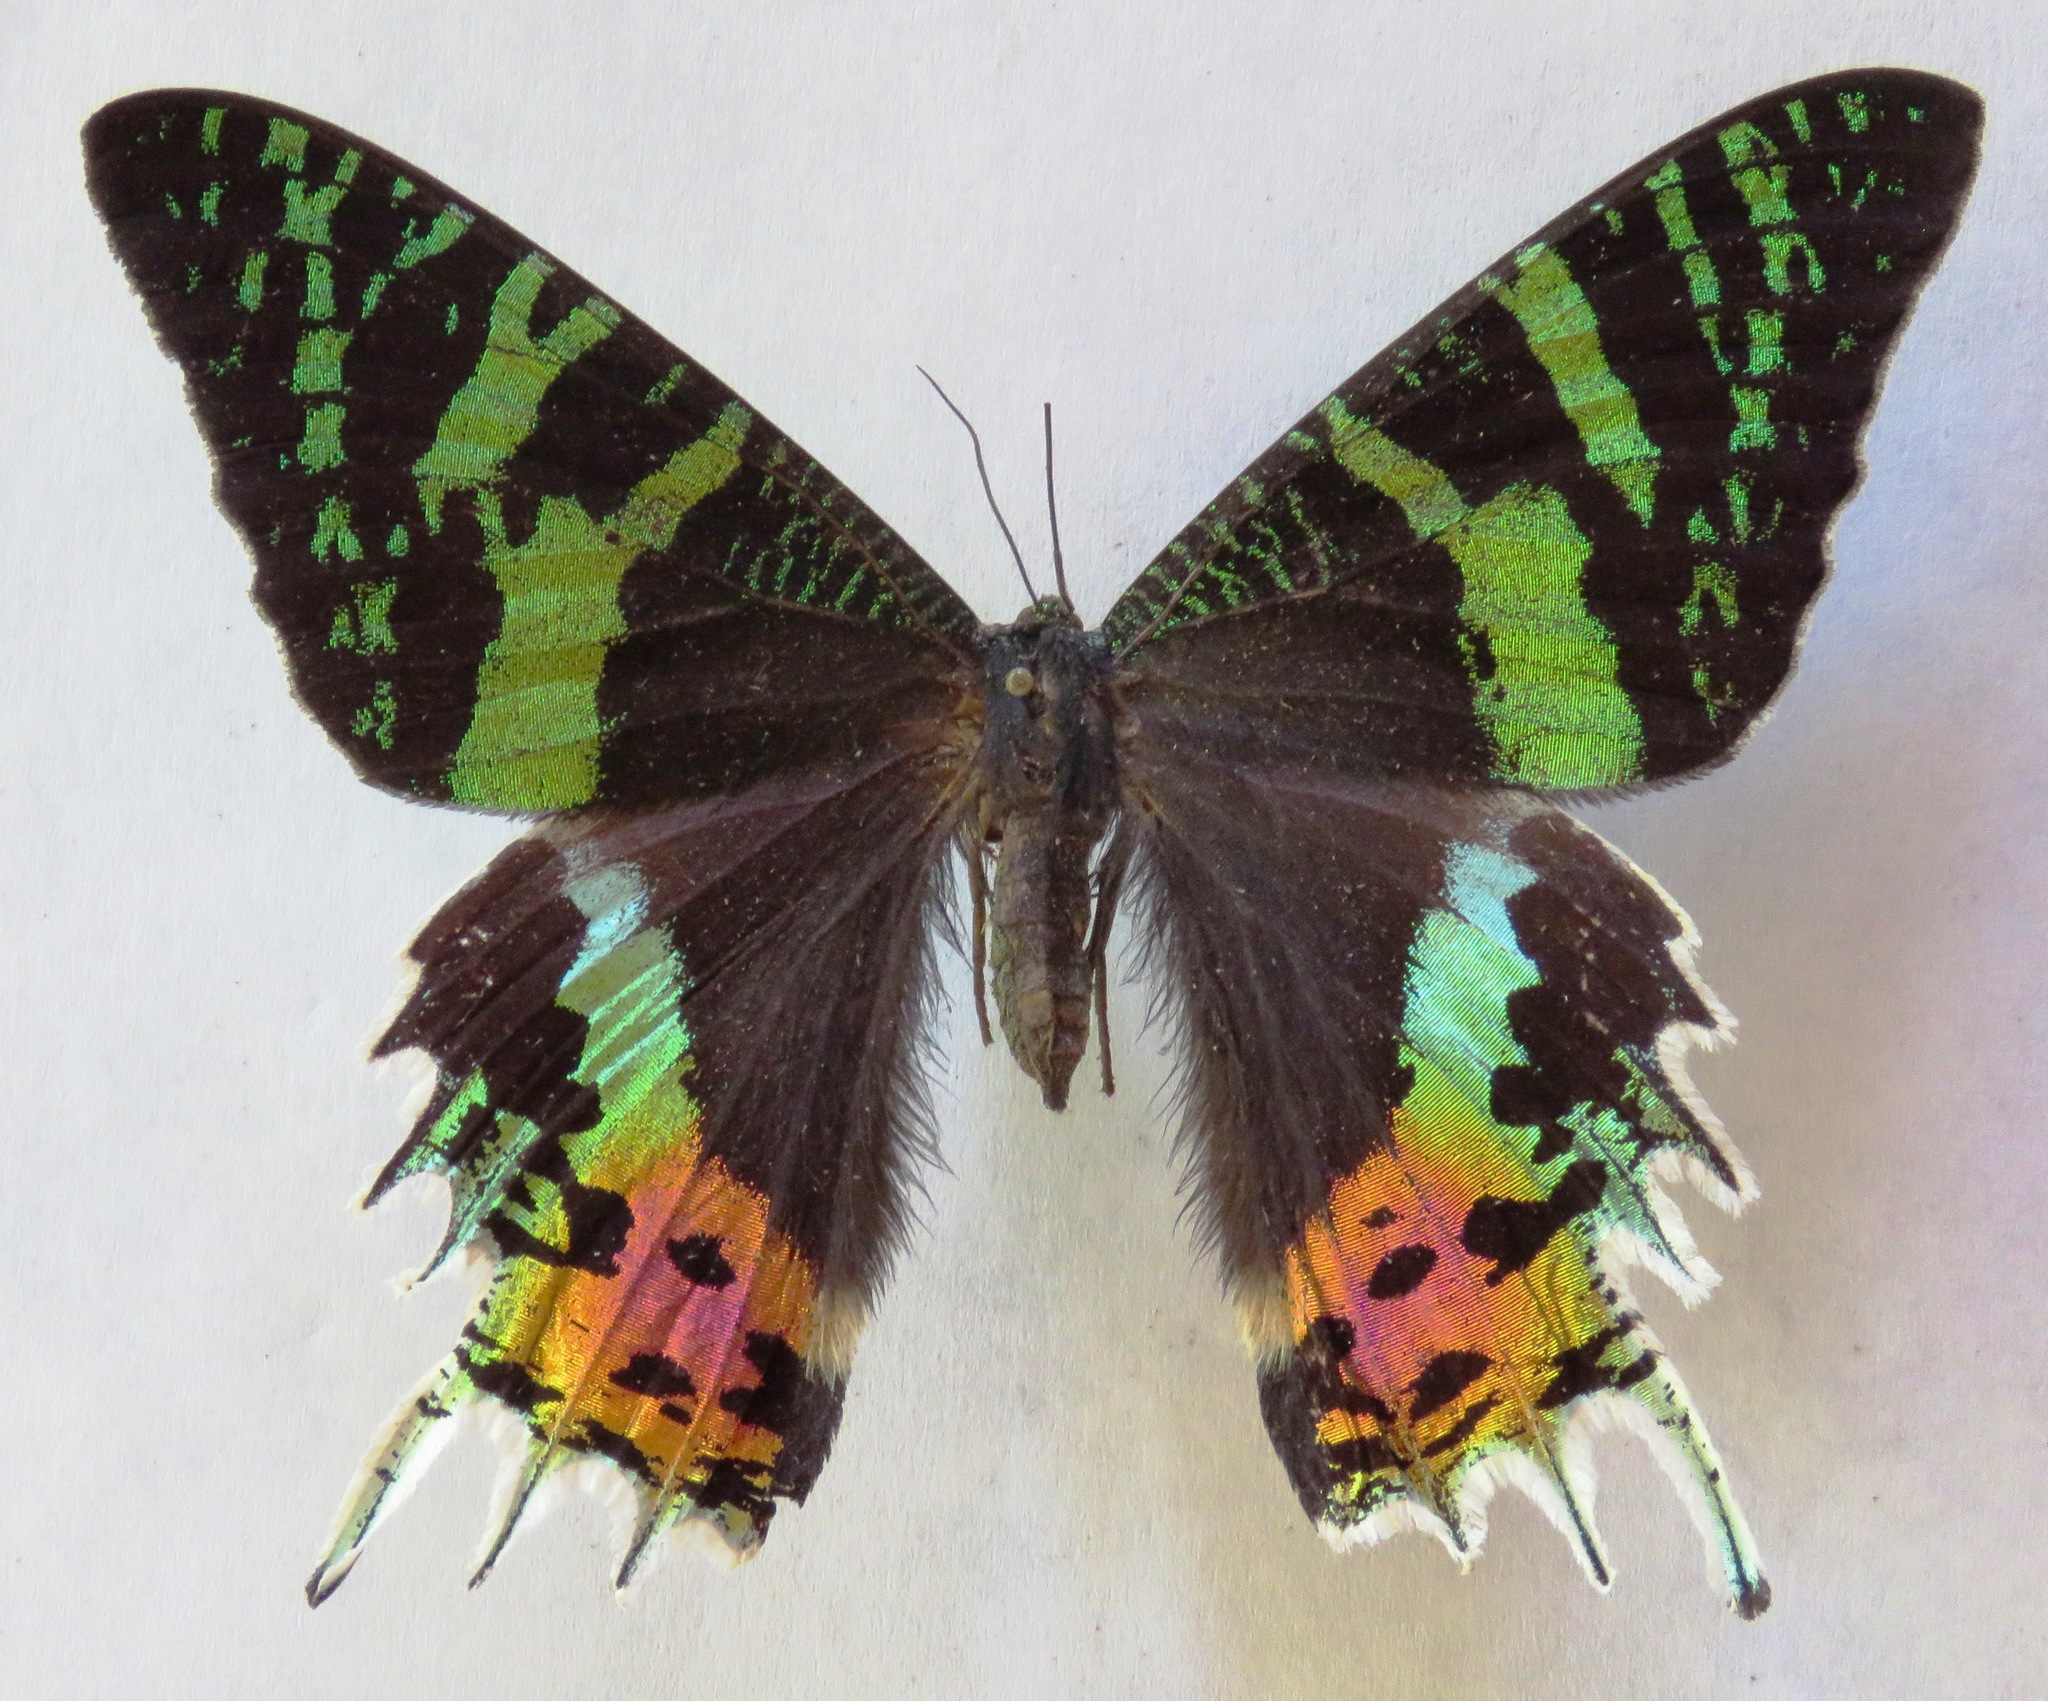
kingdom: Animalia
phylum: Arthropoda
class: Insecta
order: Lepidoptera
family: Uraniidae
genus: Chrysiridia
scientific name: Chrysiridia rhipheus
